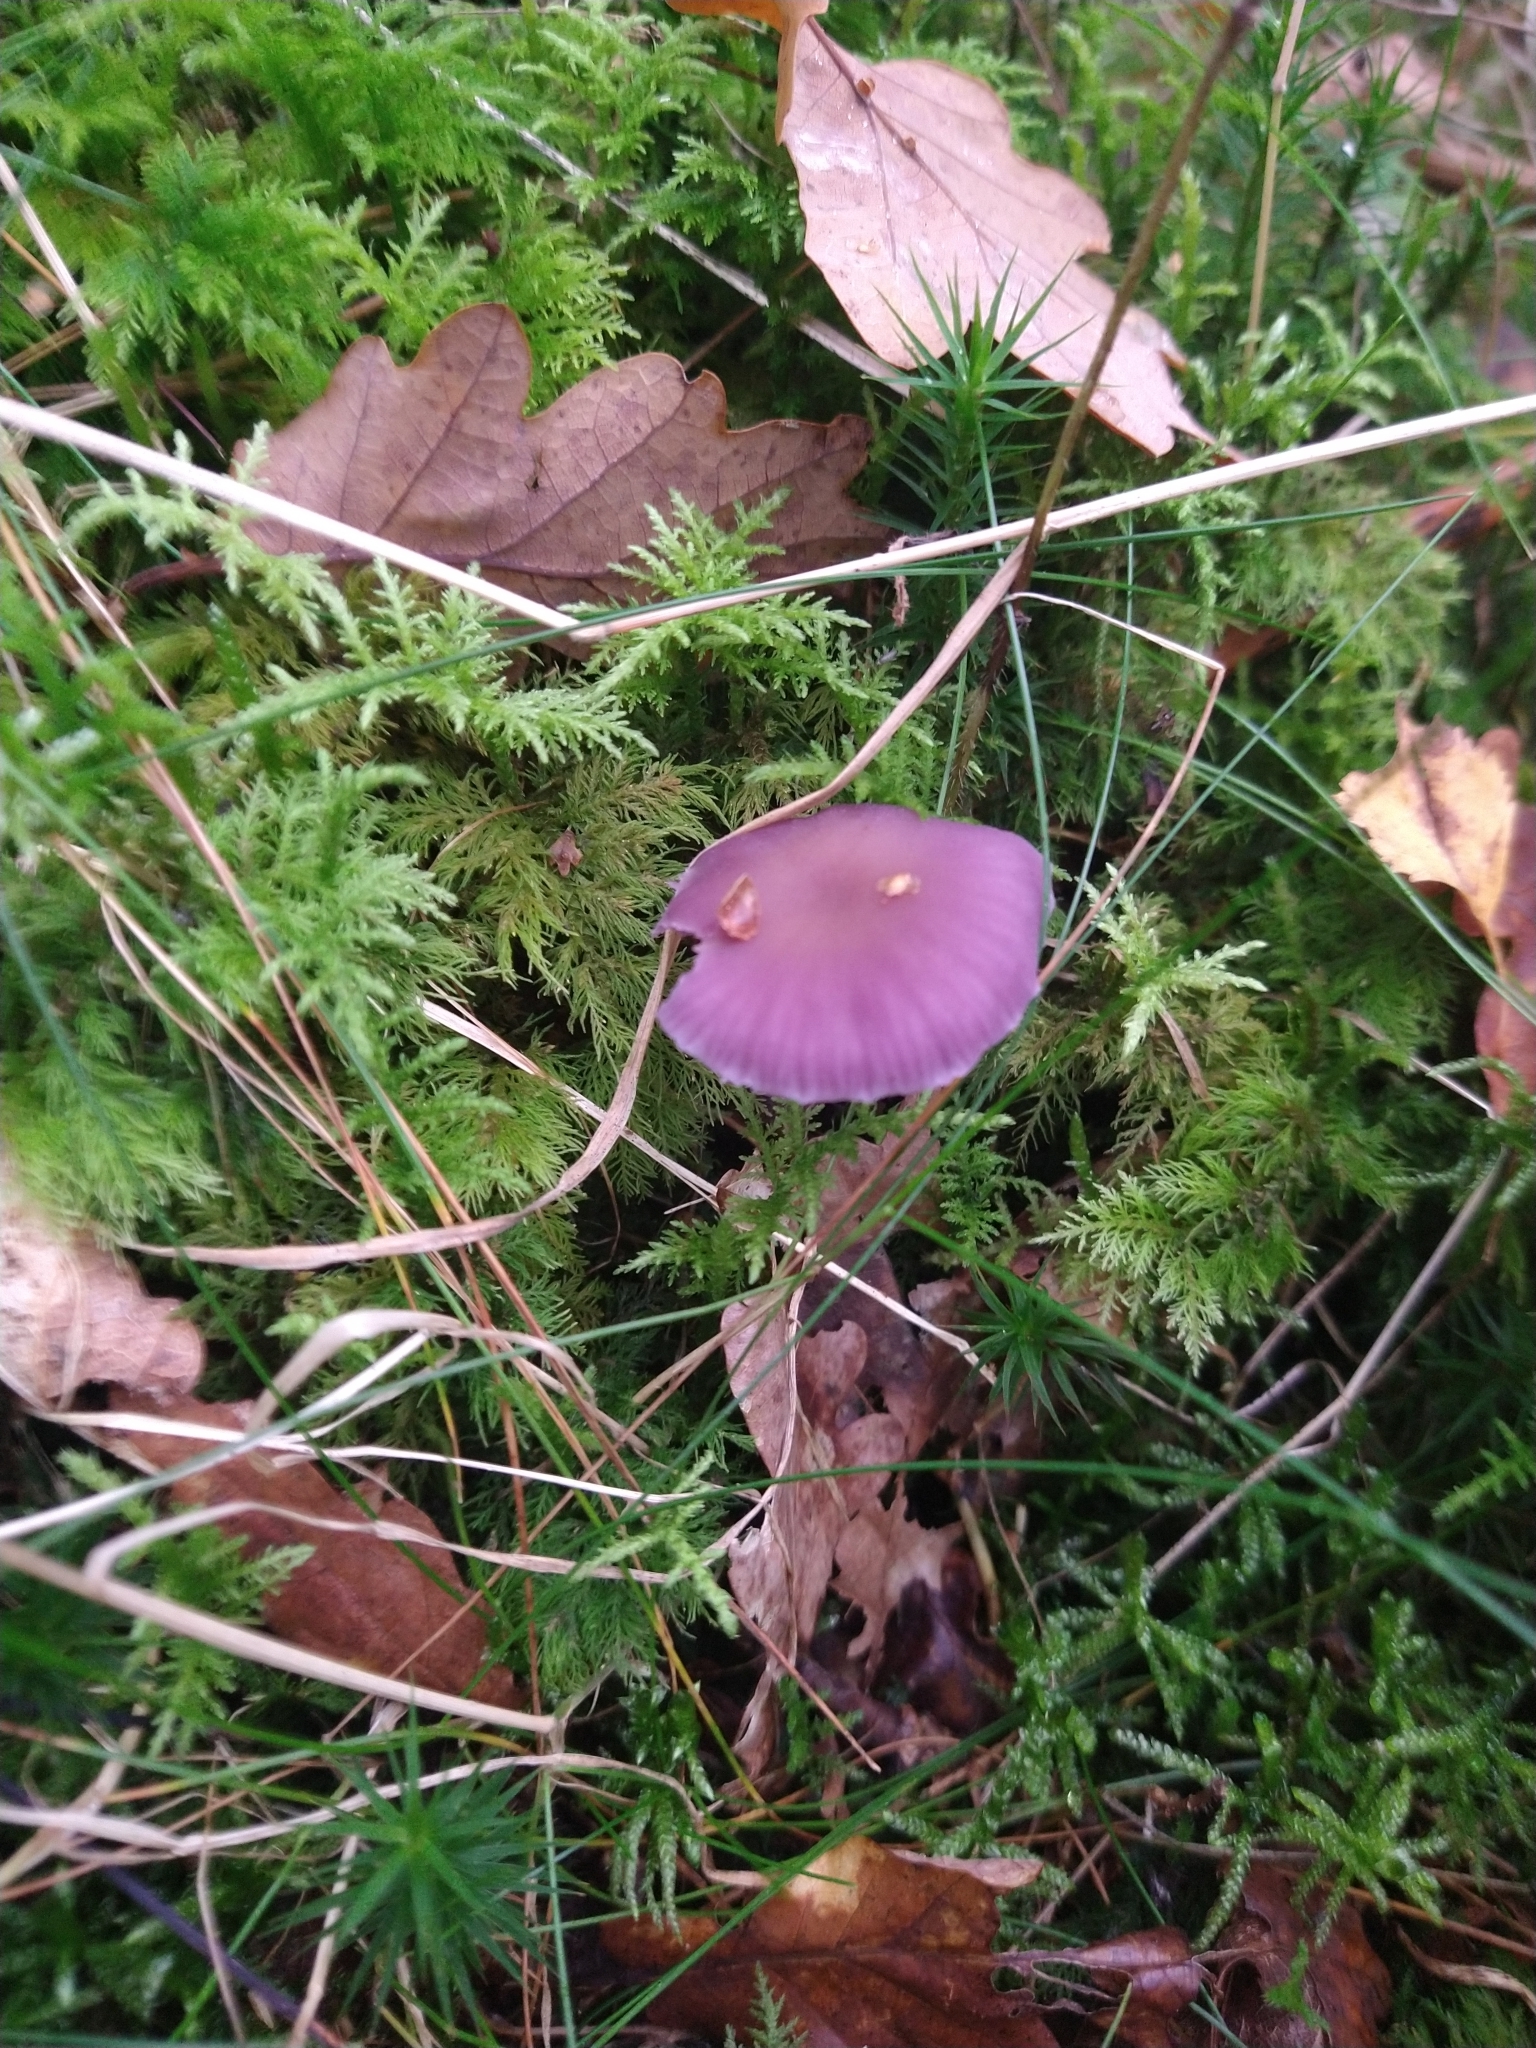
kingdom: Fungi
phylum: Basidiomycota
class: Agaricomycetes
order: Agaricales
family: Hydnangiaceae
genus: Laccaria
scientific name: Laccaria amethystina
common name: Amethyst deceiver
